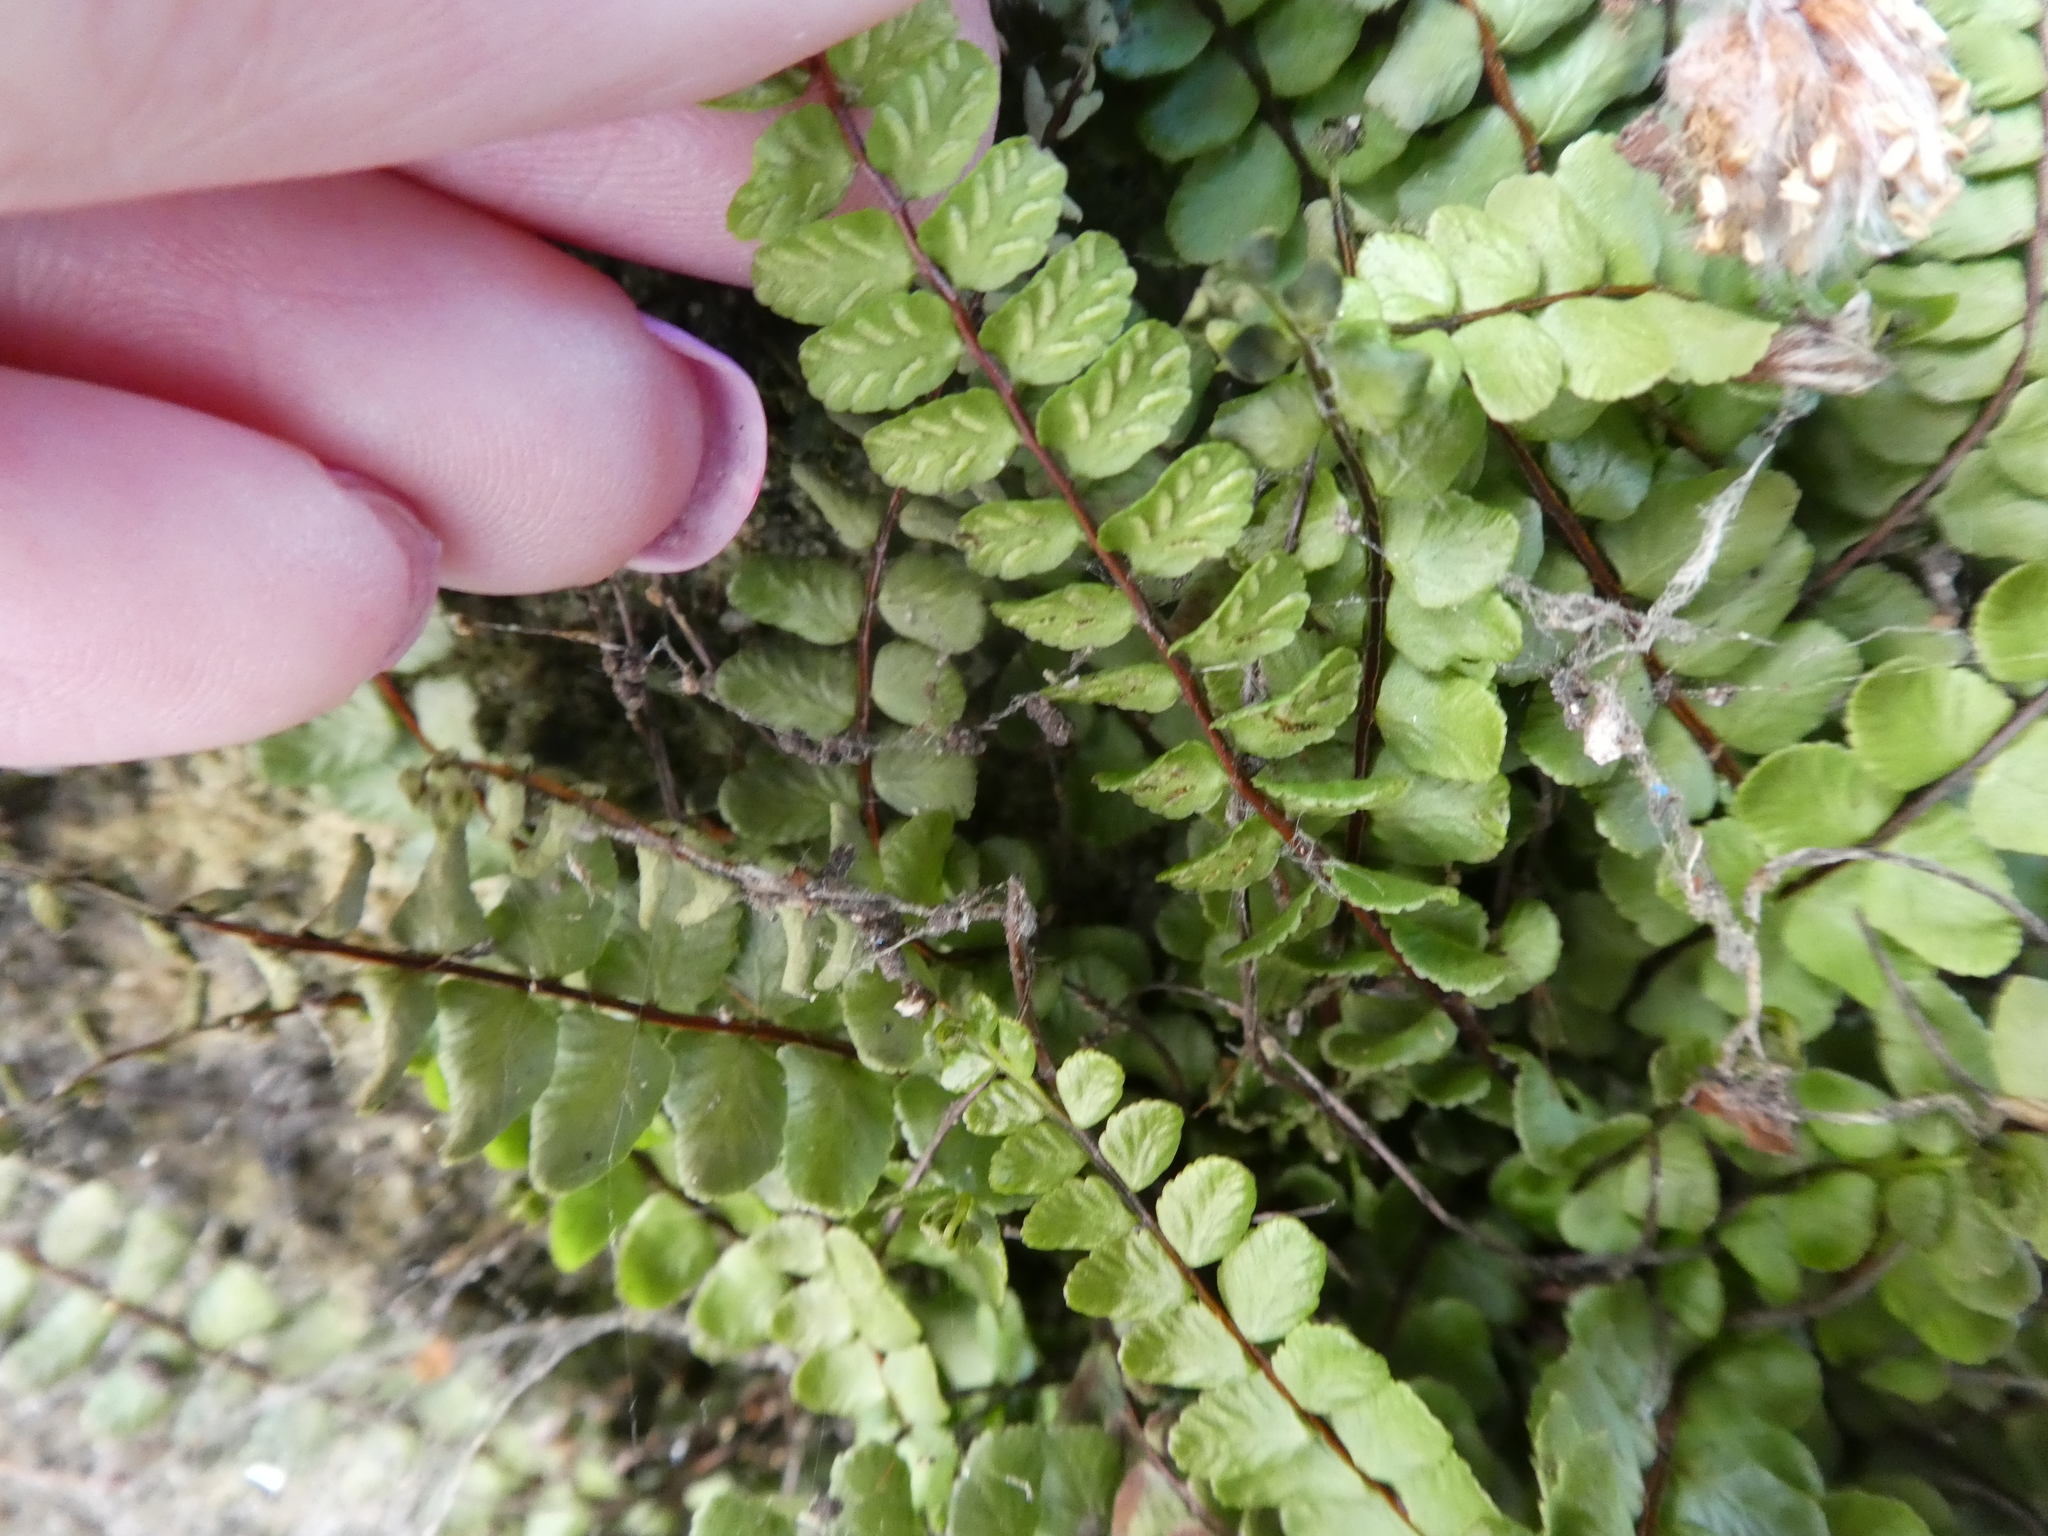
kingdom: Plantae
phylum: Tracheophyta
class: Polypodiopsida
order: Polypodiales
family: Aspleniaceae
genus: Asplenium
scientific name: Asplenium trichomanes
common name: Maidenhair spleenwort
